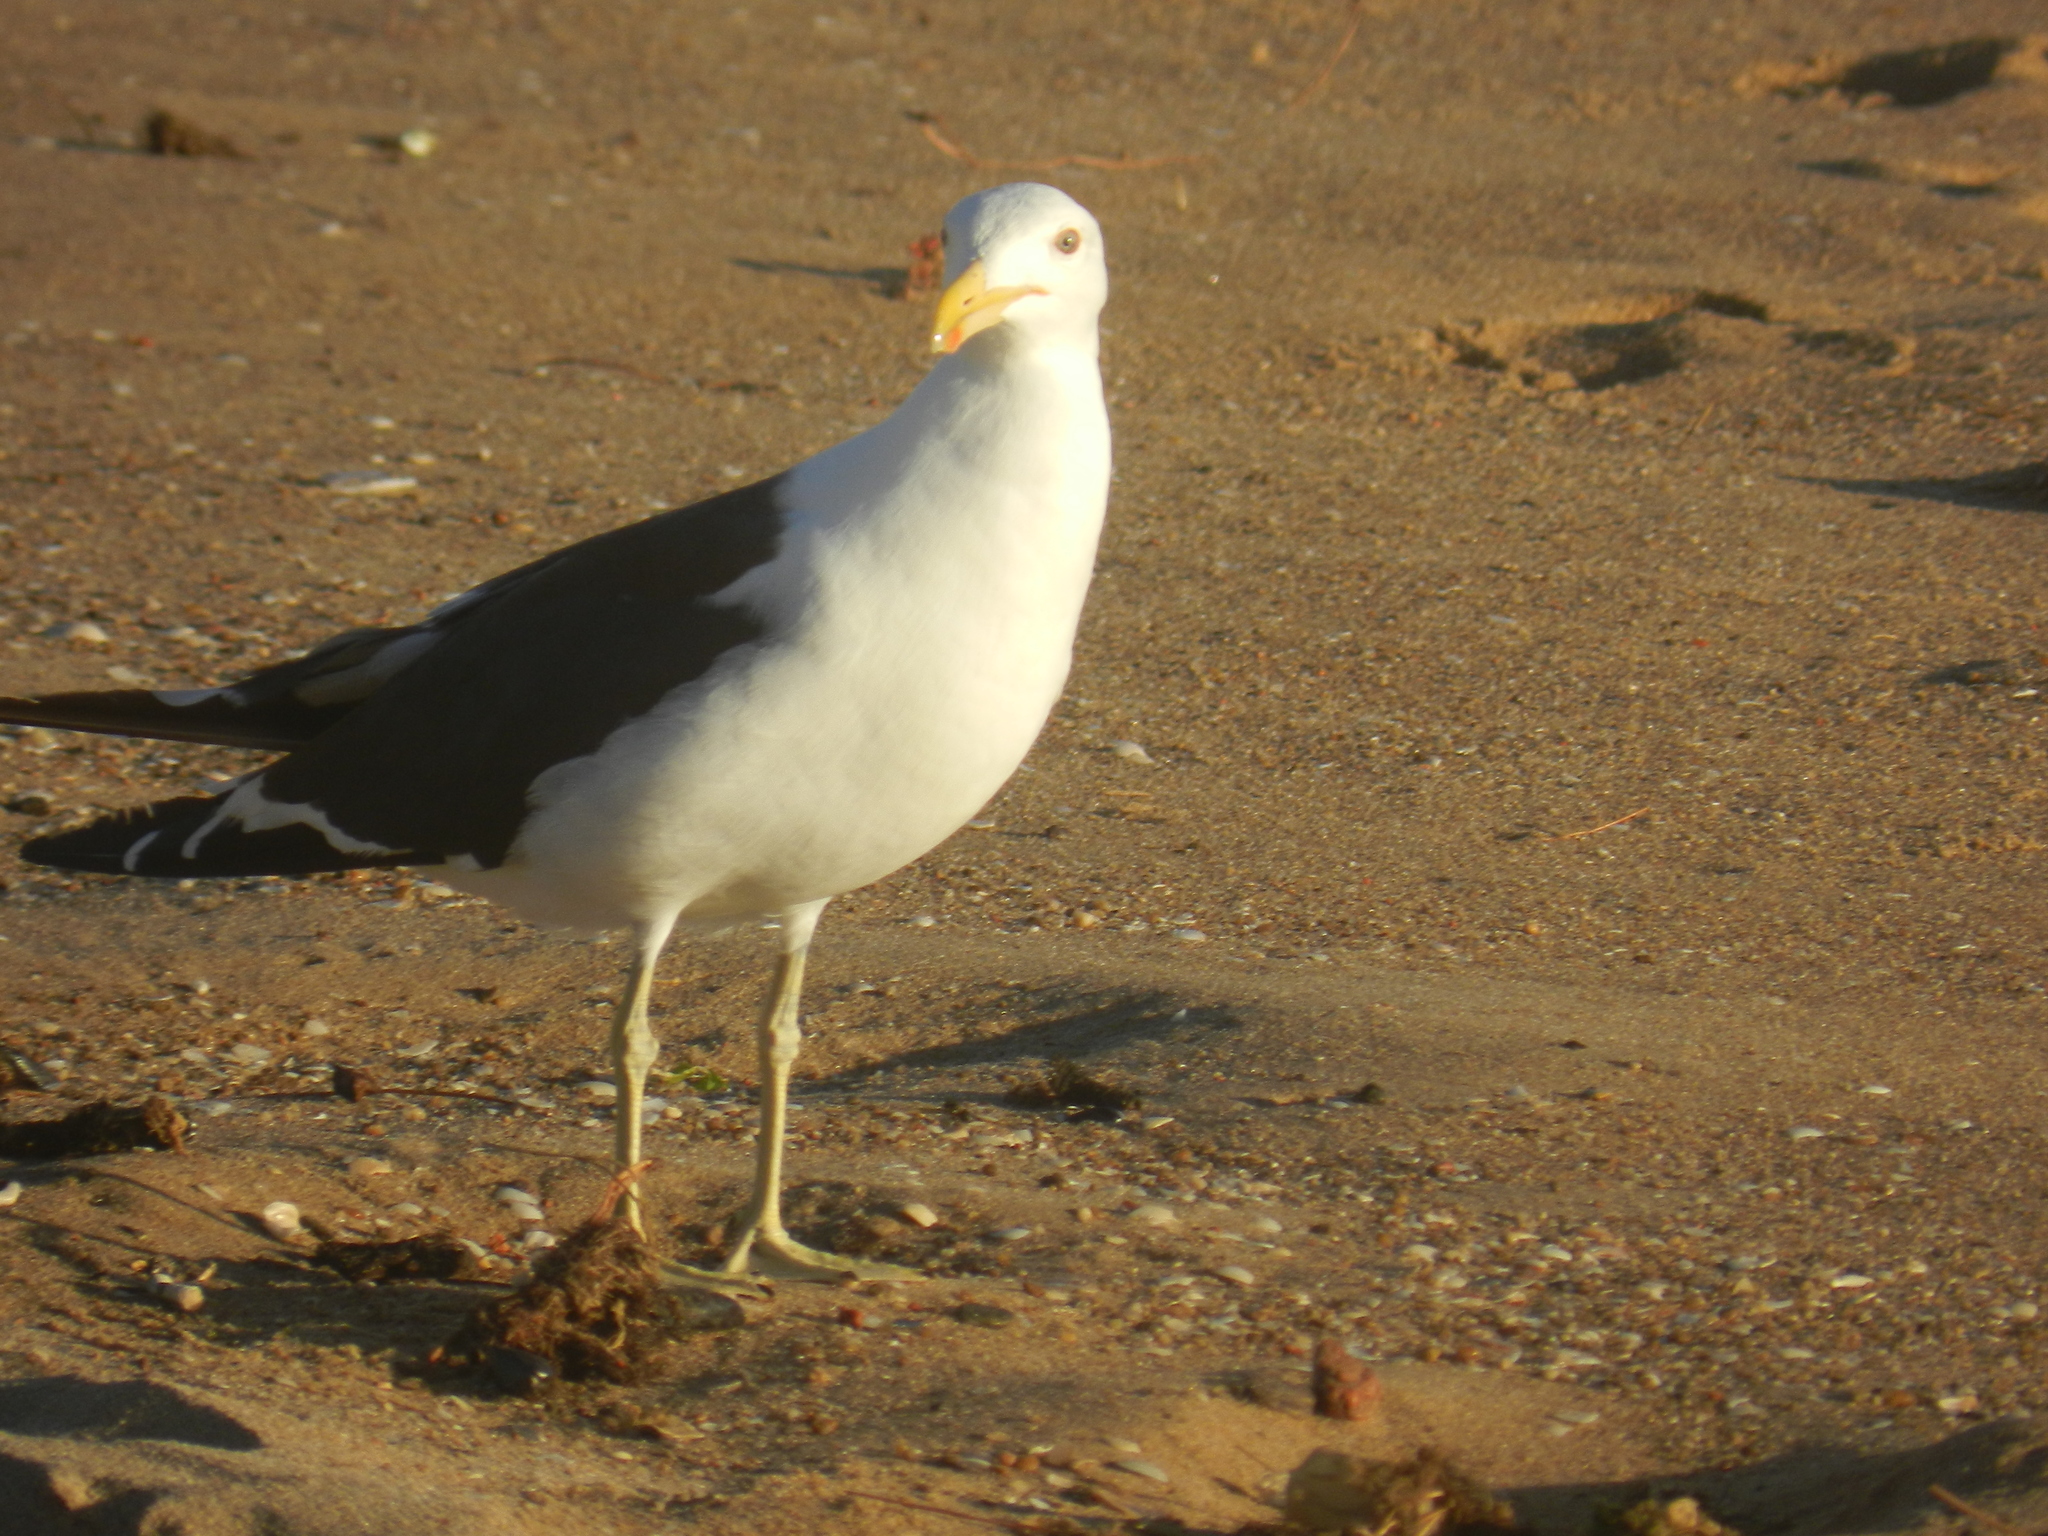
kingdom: Animalia
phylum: Chordata
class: Aves
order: Charadriiformes
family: Laridae
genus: Larus
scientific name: Larus dominicanus
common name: Kelp gull
